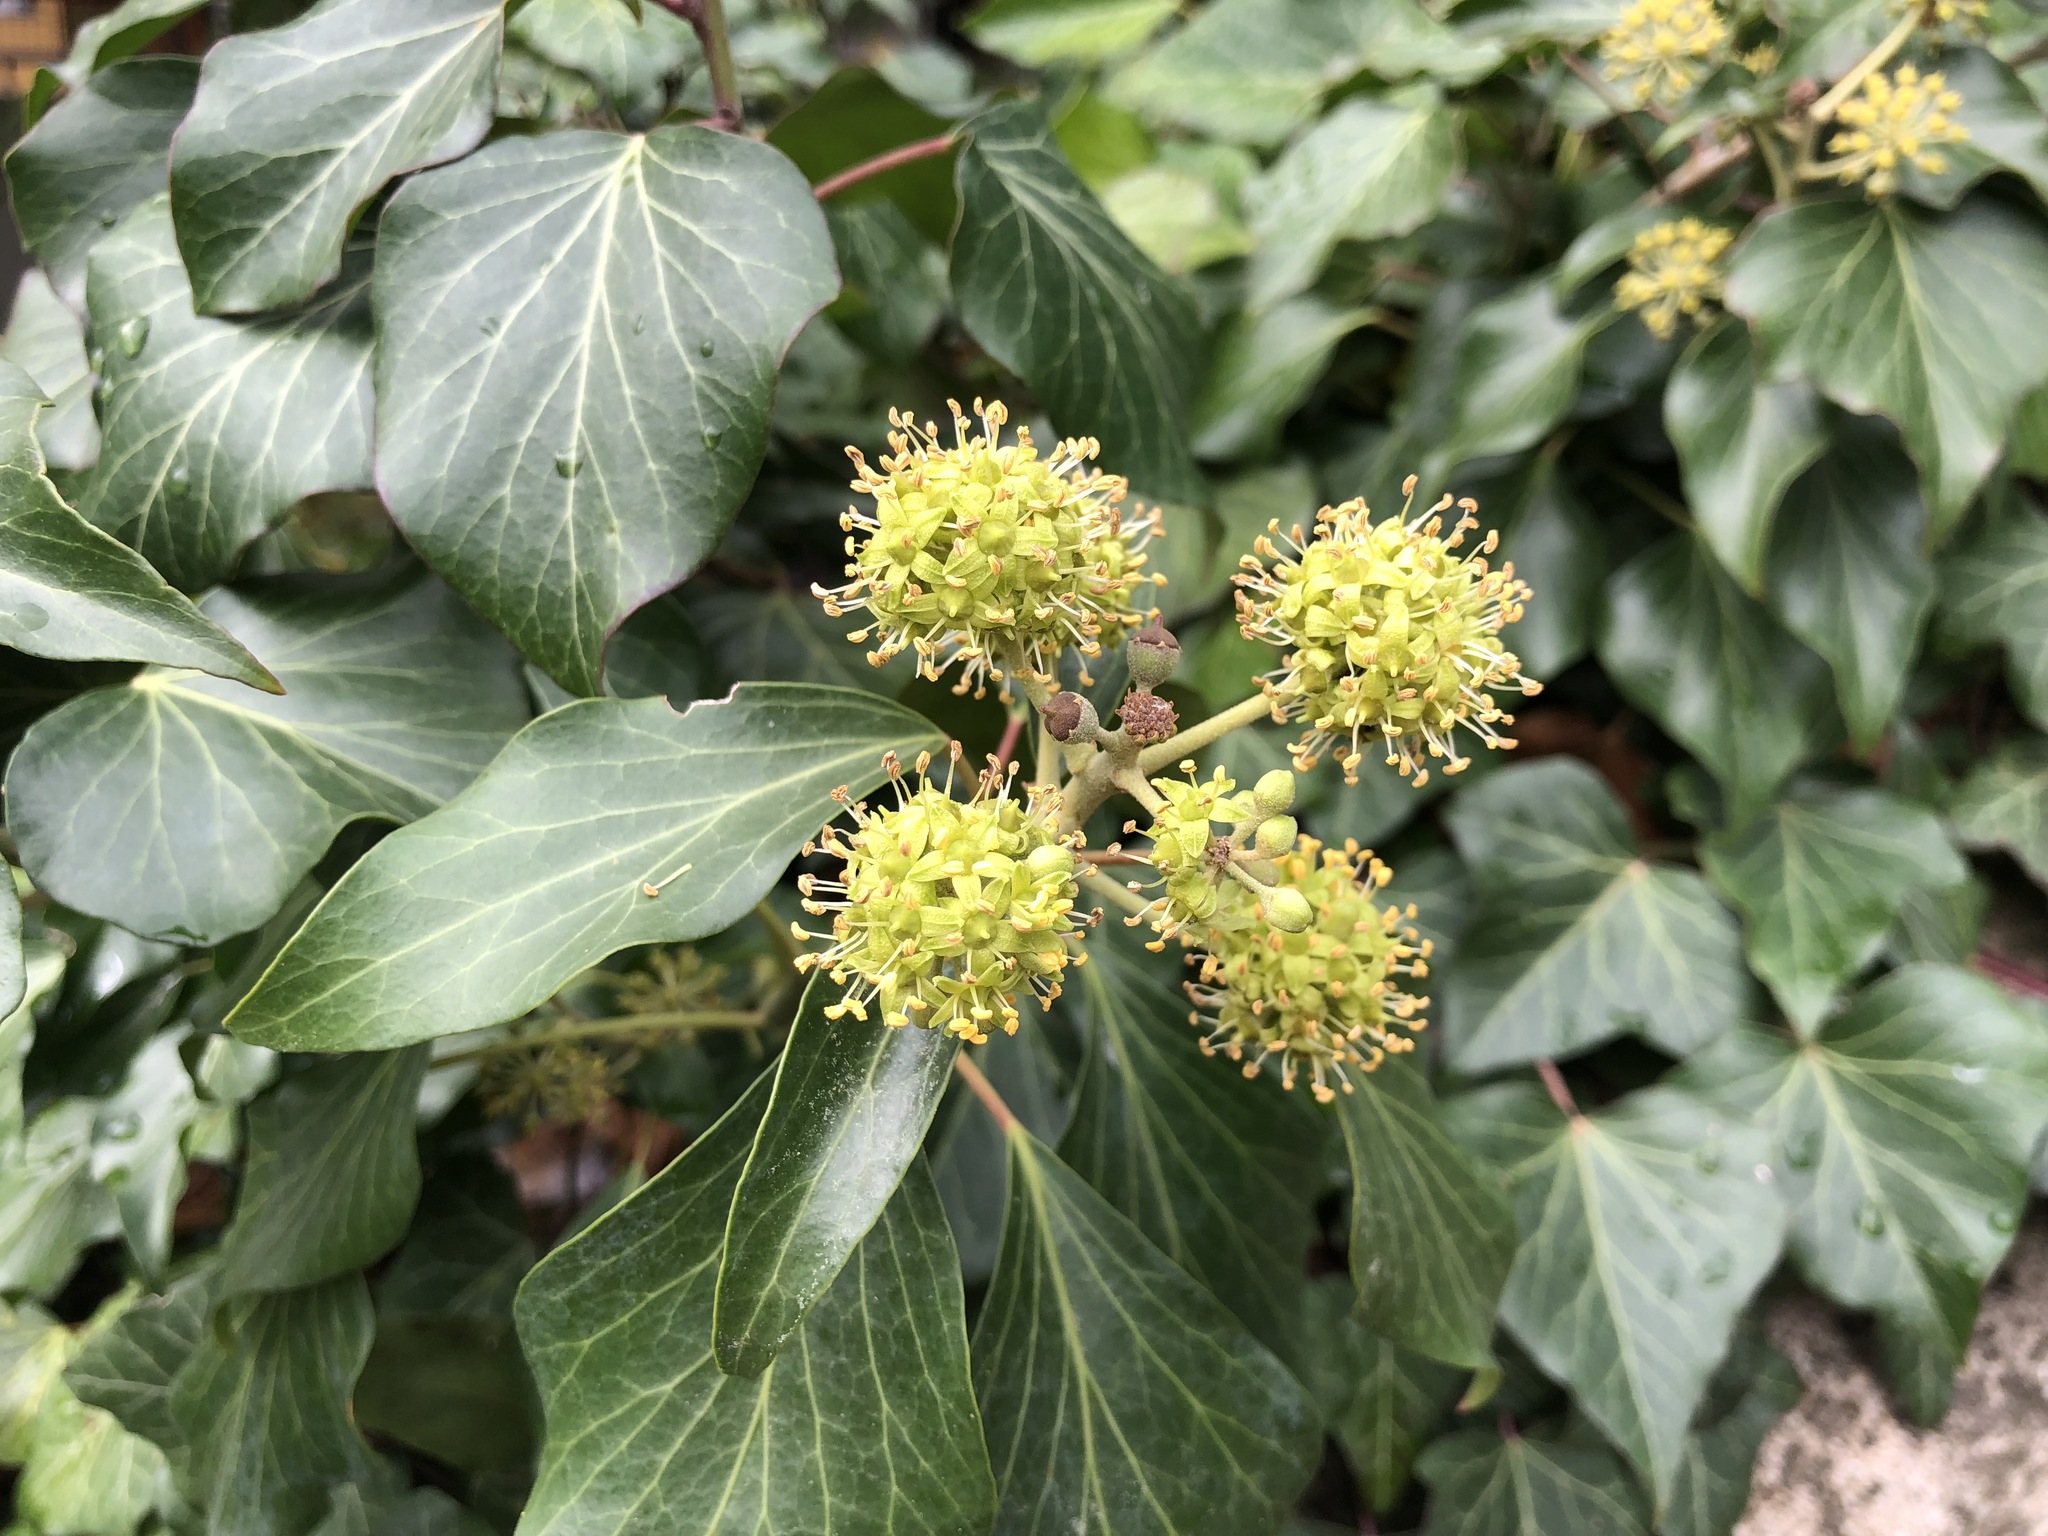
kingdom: Plantae
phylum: Tracheophyta
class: Magnoliopsida
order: Apiales
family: Araliaceae
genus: Hedera
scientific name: Hedera helix
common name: Ivy
